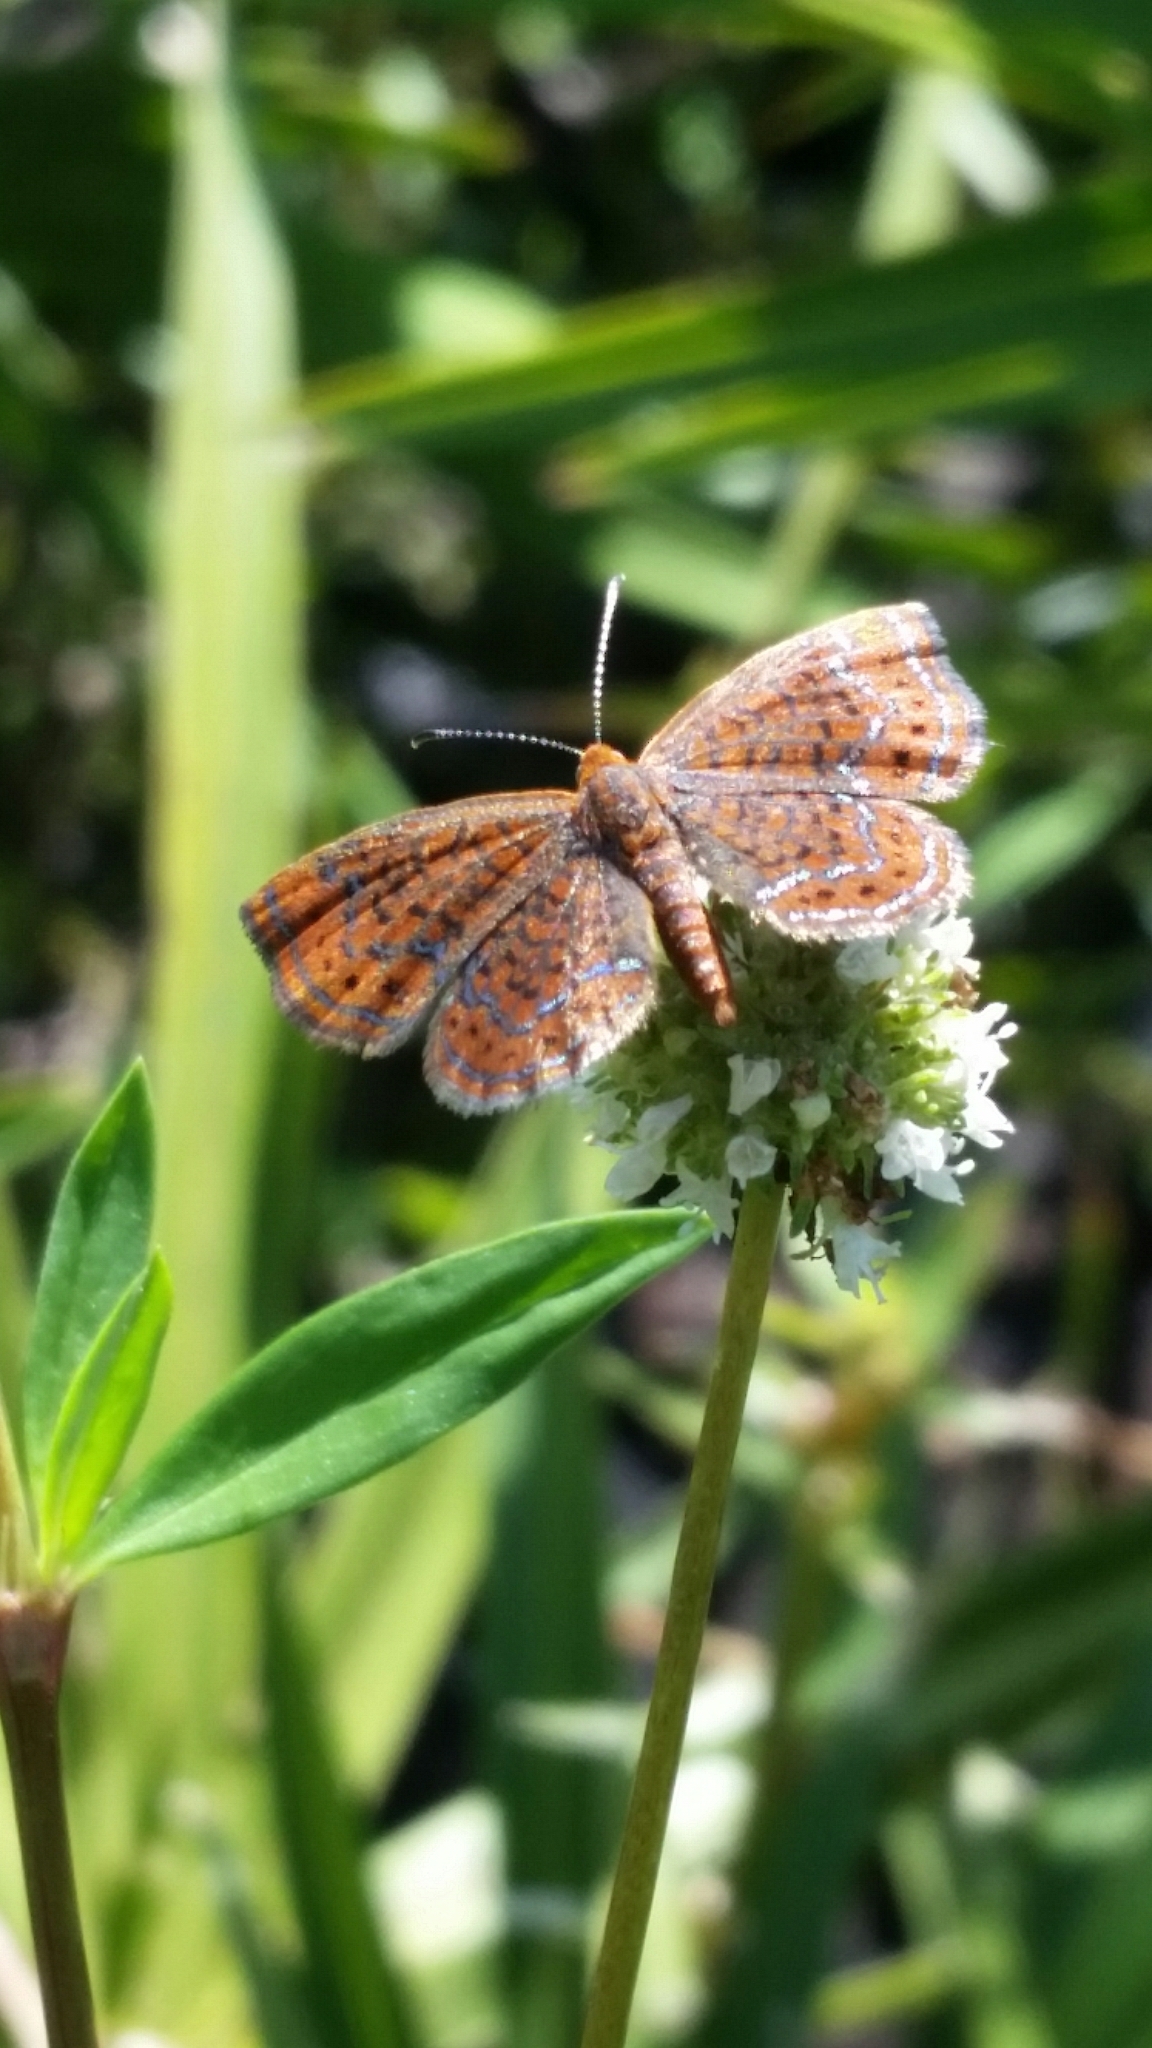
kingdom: Animalia
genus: Calephelis
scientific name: Calephelis virginiensis
